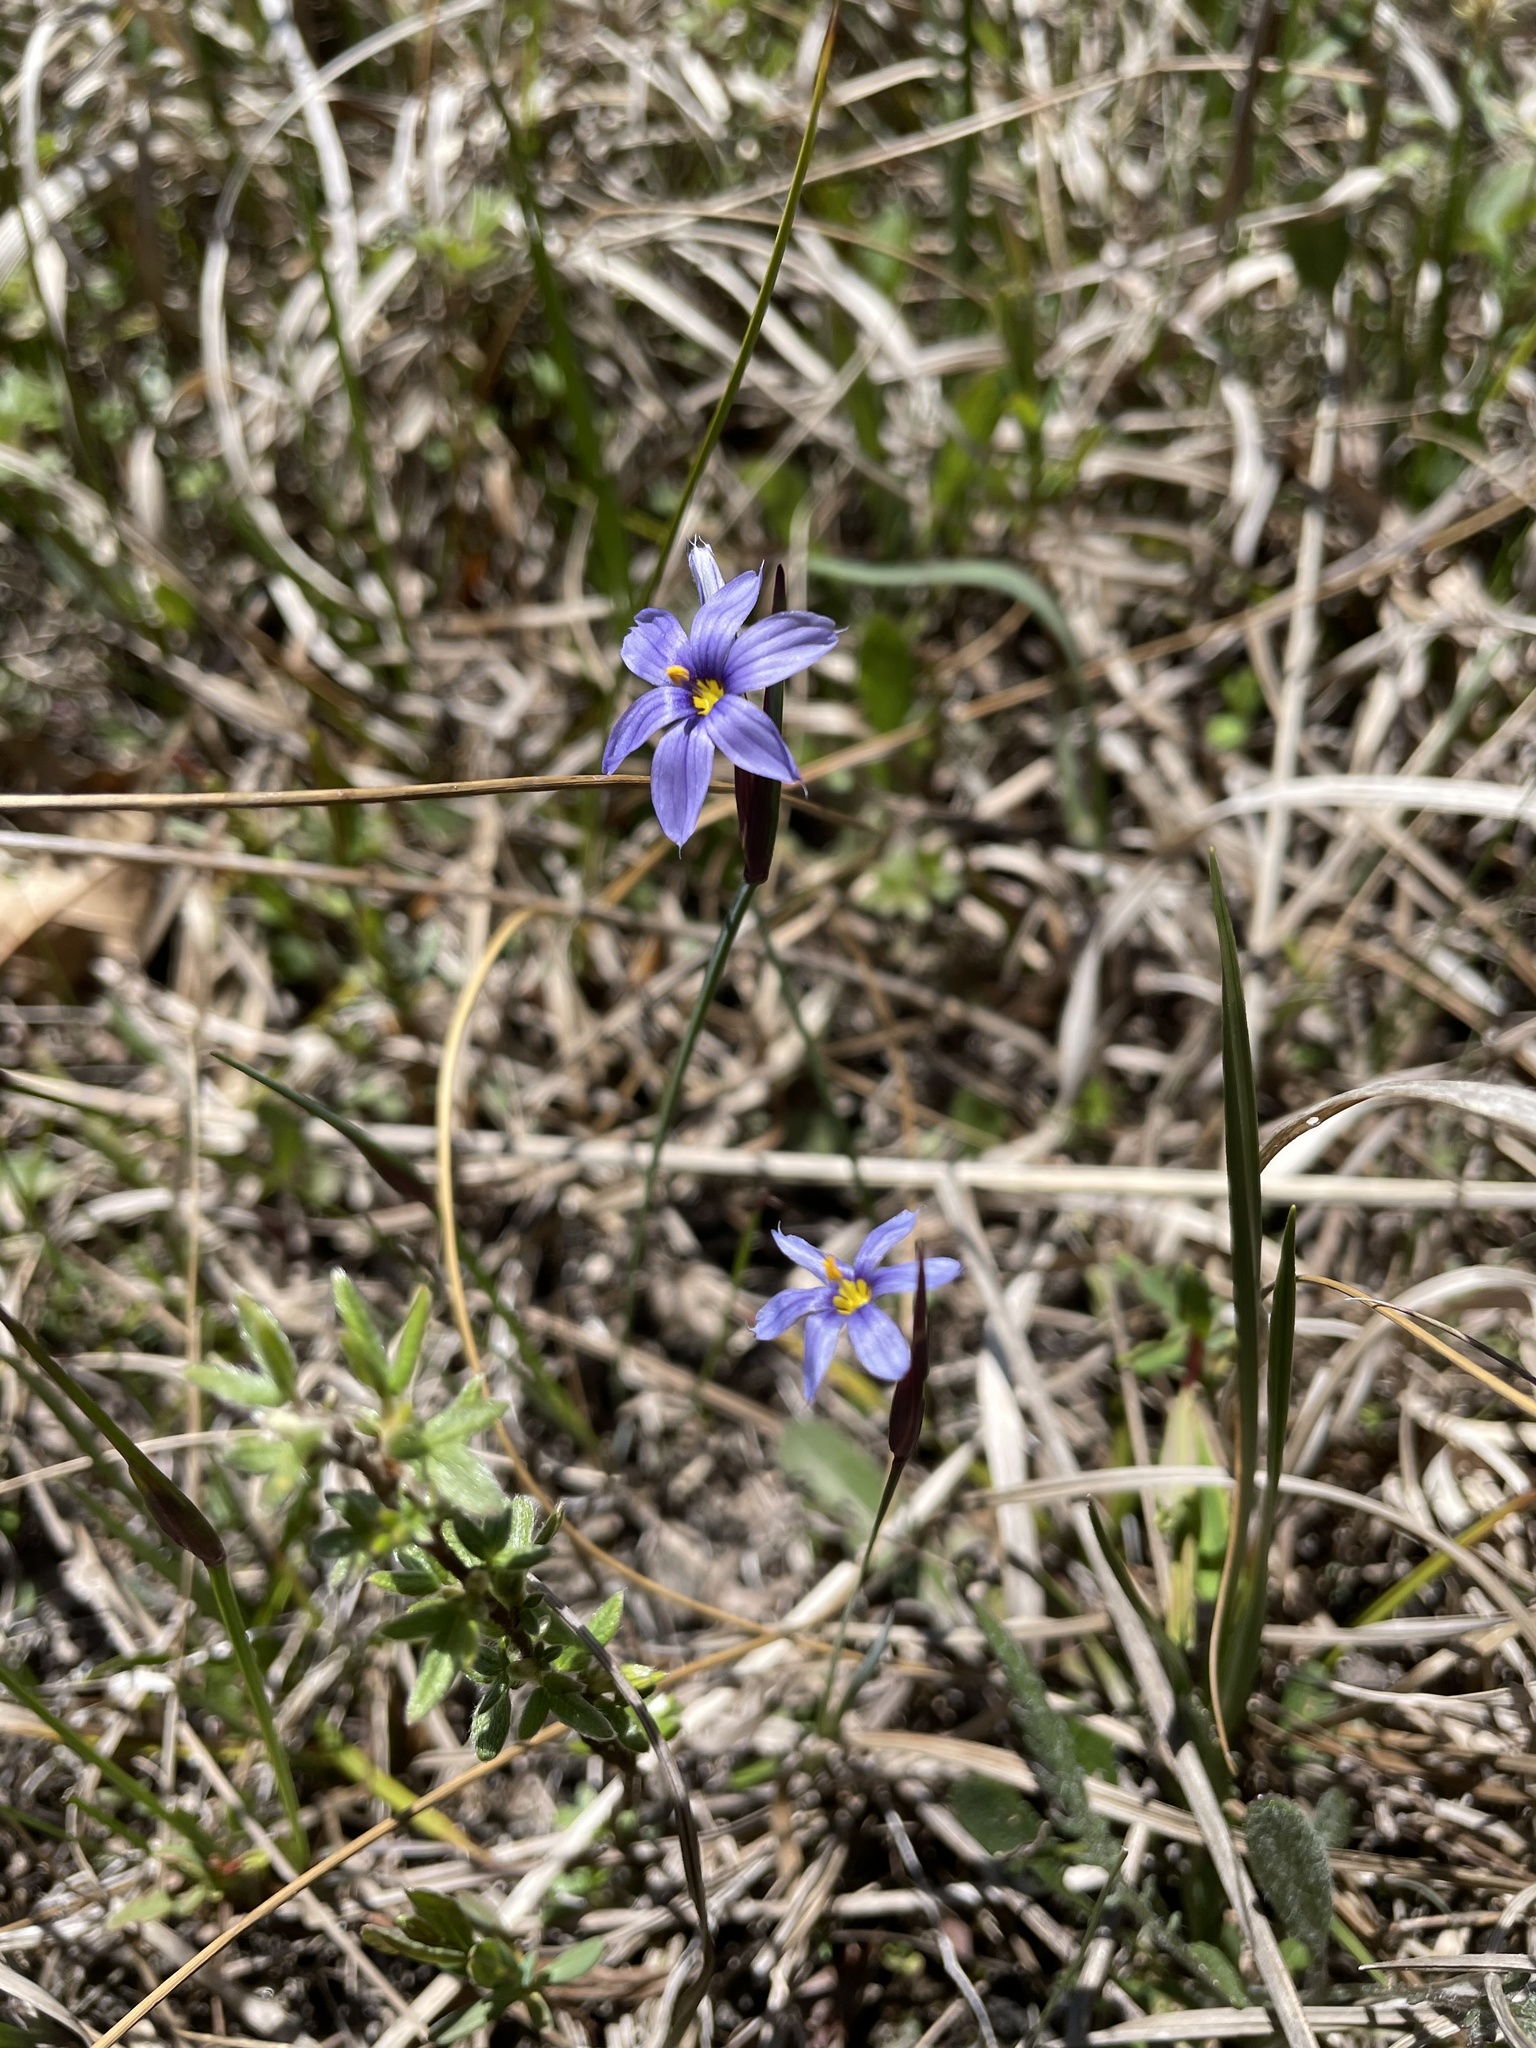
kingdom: Plantae
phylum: Tracheophyta
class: Liliopsida
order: Asparagales
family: Iridaceae
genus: Sisyrinchium
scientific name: Sisyrinchium montanum
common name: American blue-eyed-grass
